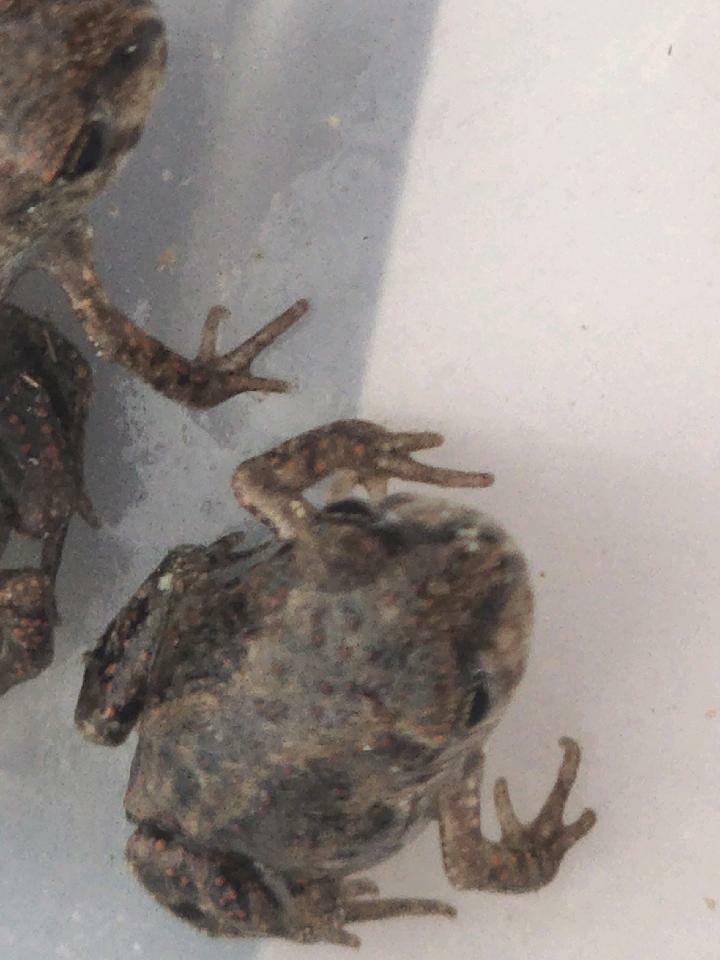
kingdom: Animalia
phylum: Chordata
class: Amphibia
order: Anura
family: Scaphiopodidae
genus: Scaphiopus
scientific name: Scaphiopus holbrookii
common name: Eastern spadefoot toad
